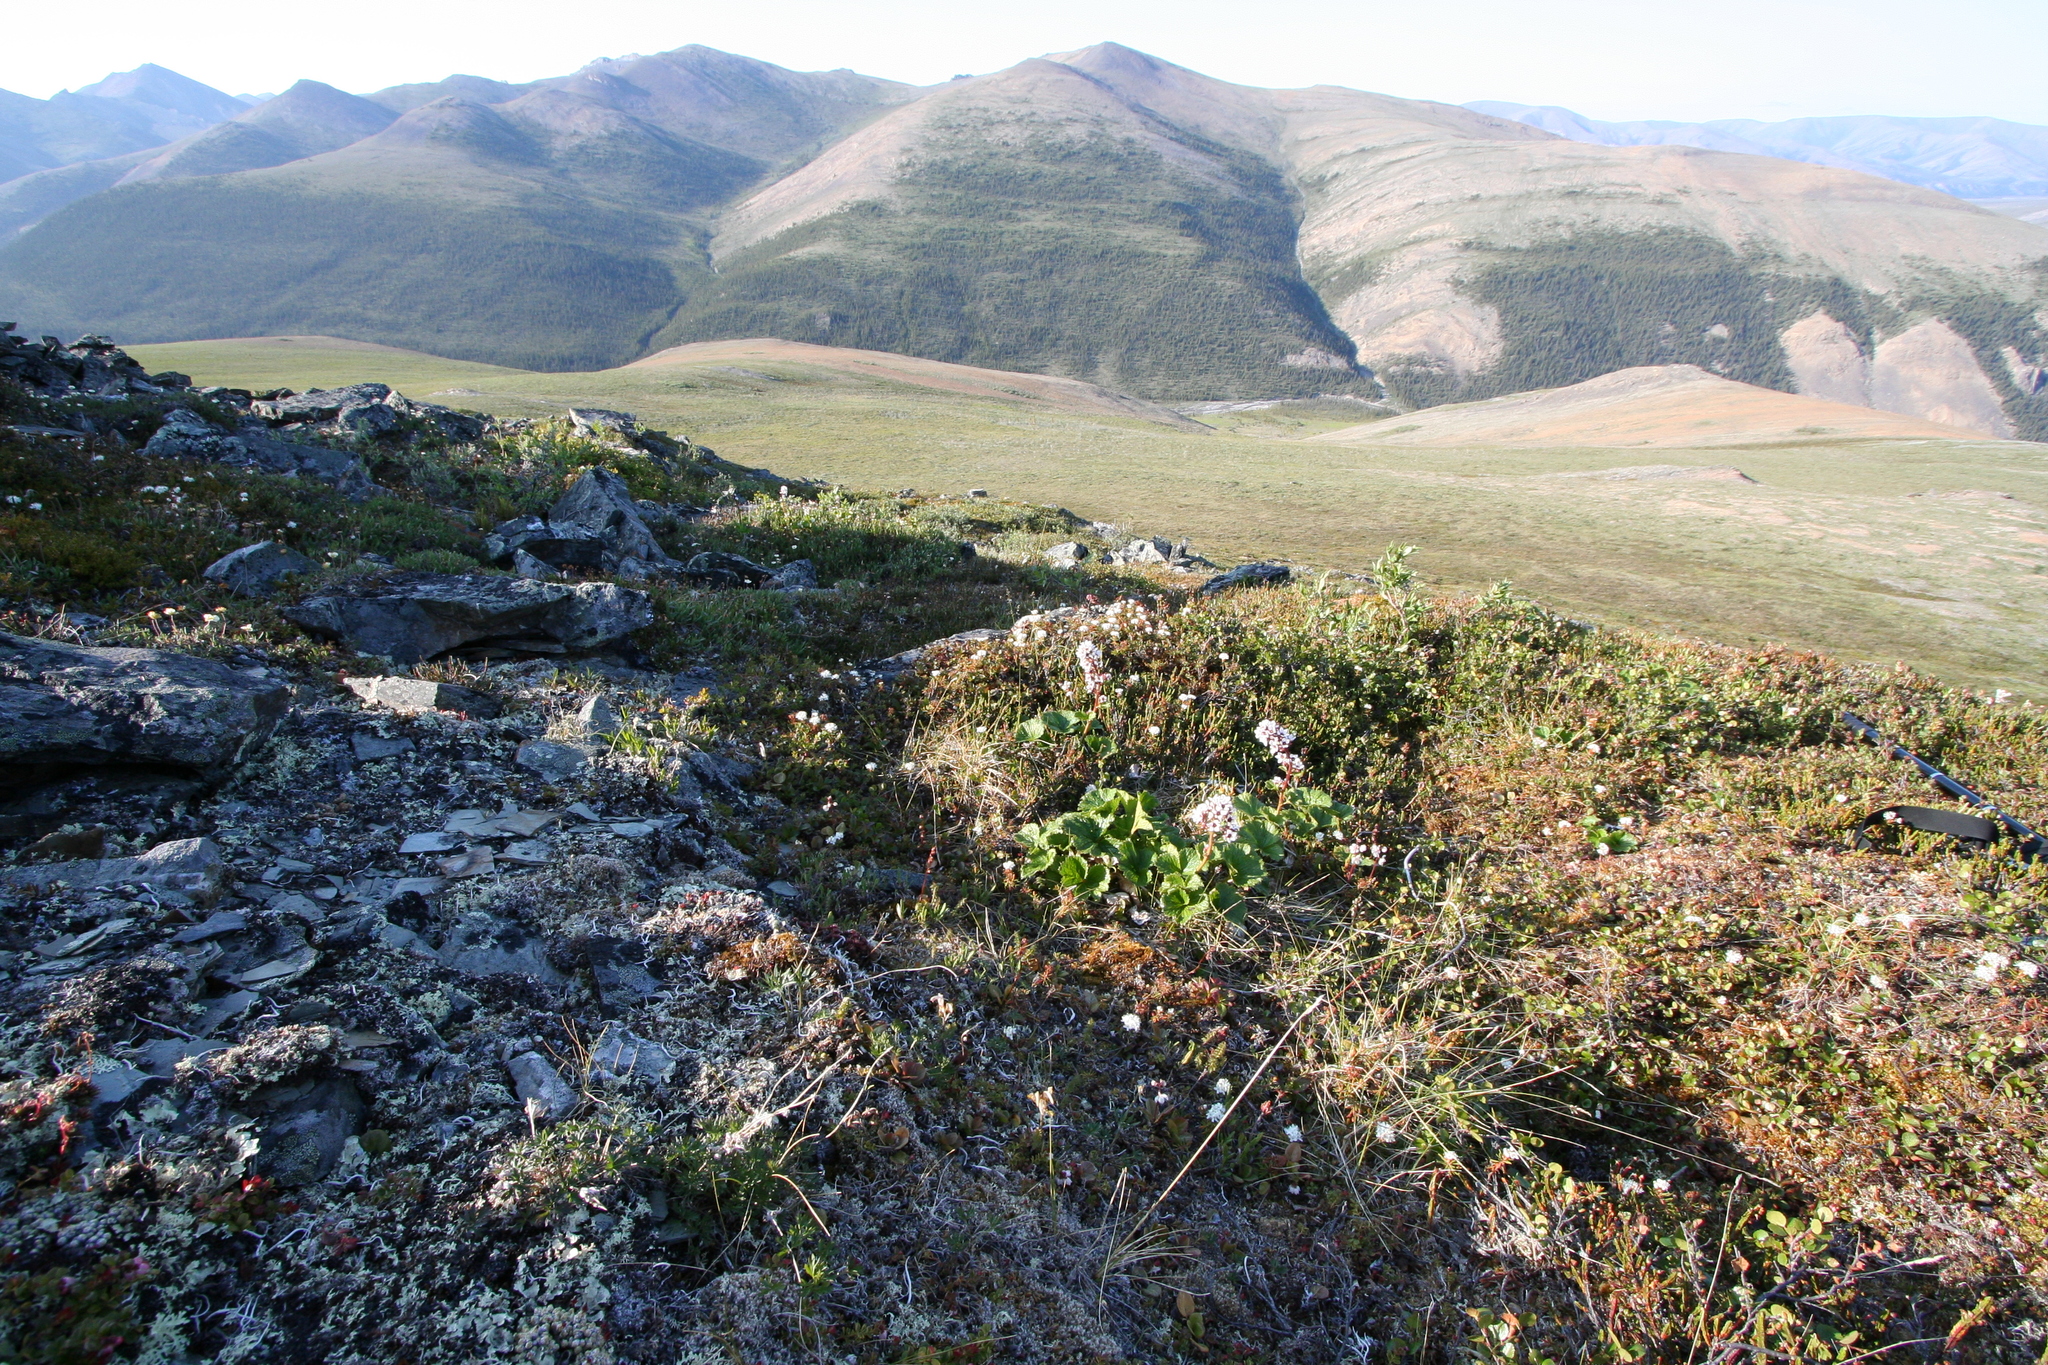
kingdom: Plantae
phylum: Tracheophyta
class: Magnoliopsida
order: Saxifragales
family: Saxifragaceae
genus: Boykinia
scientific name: Boykinia richardsonii
